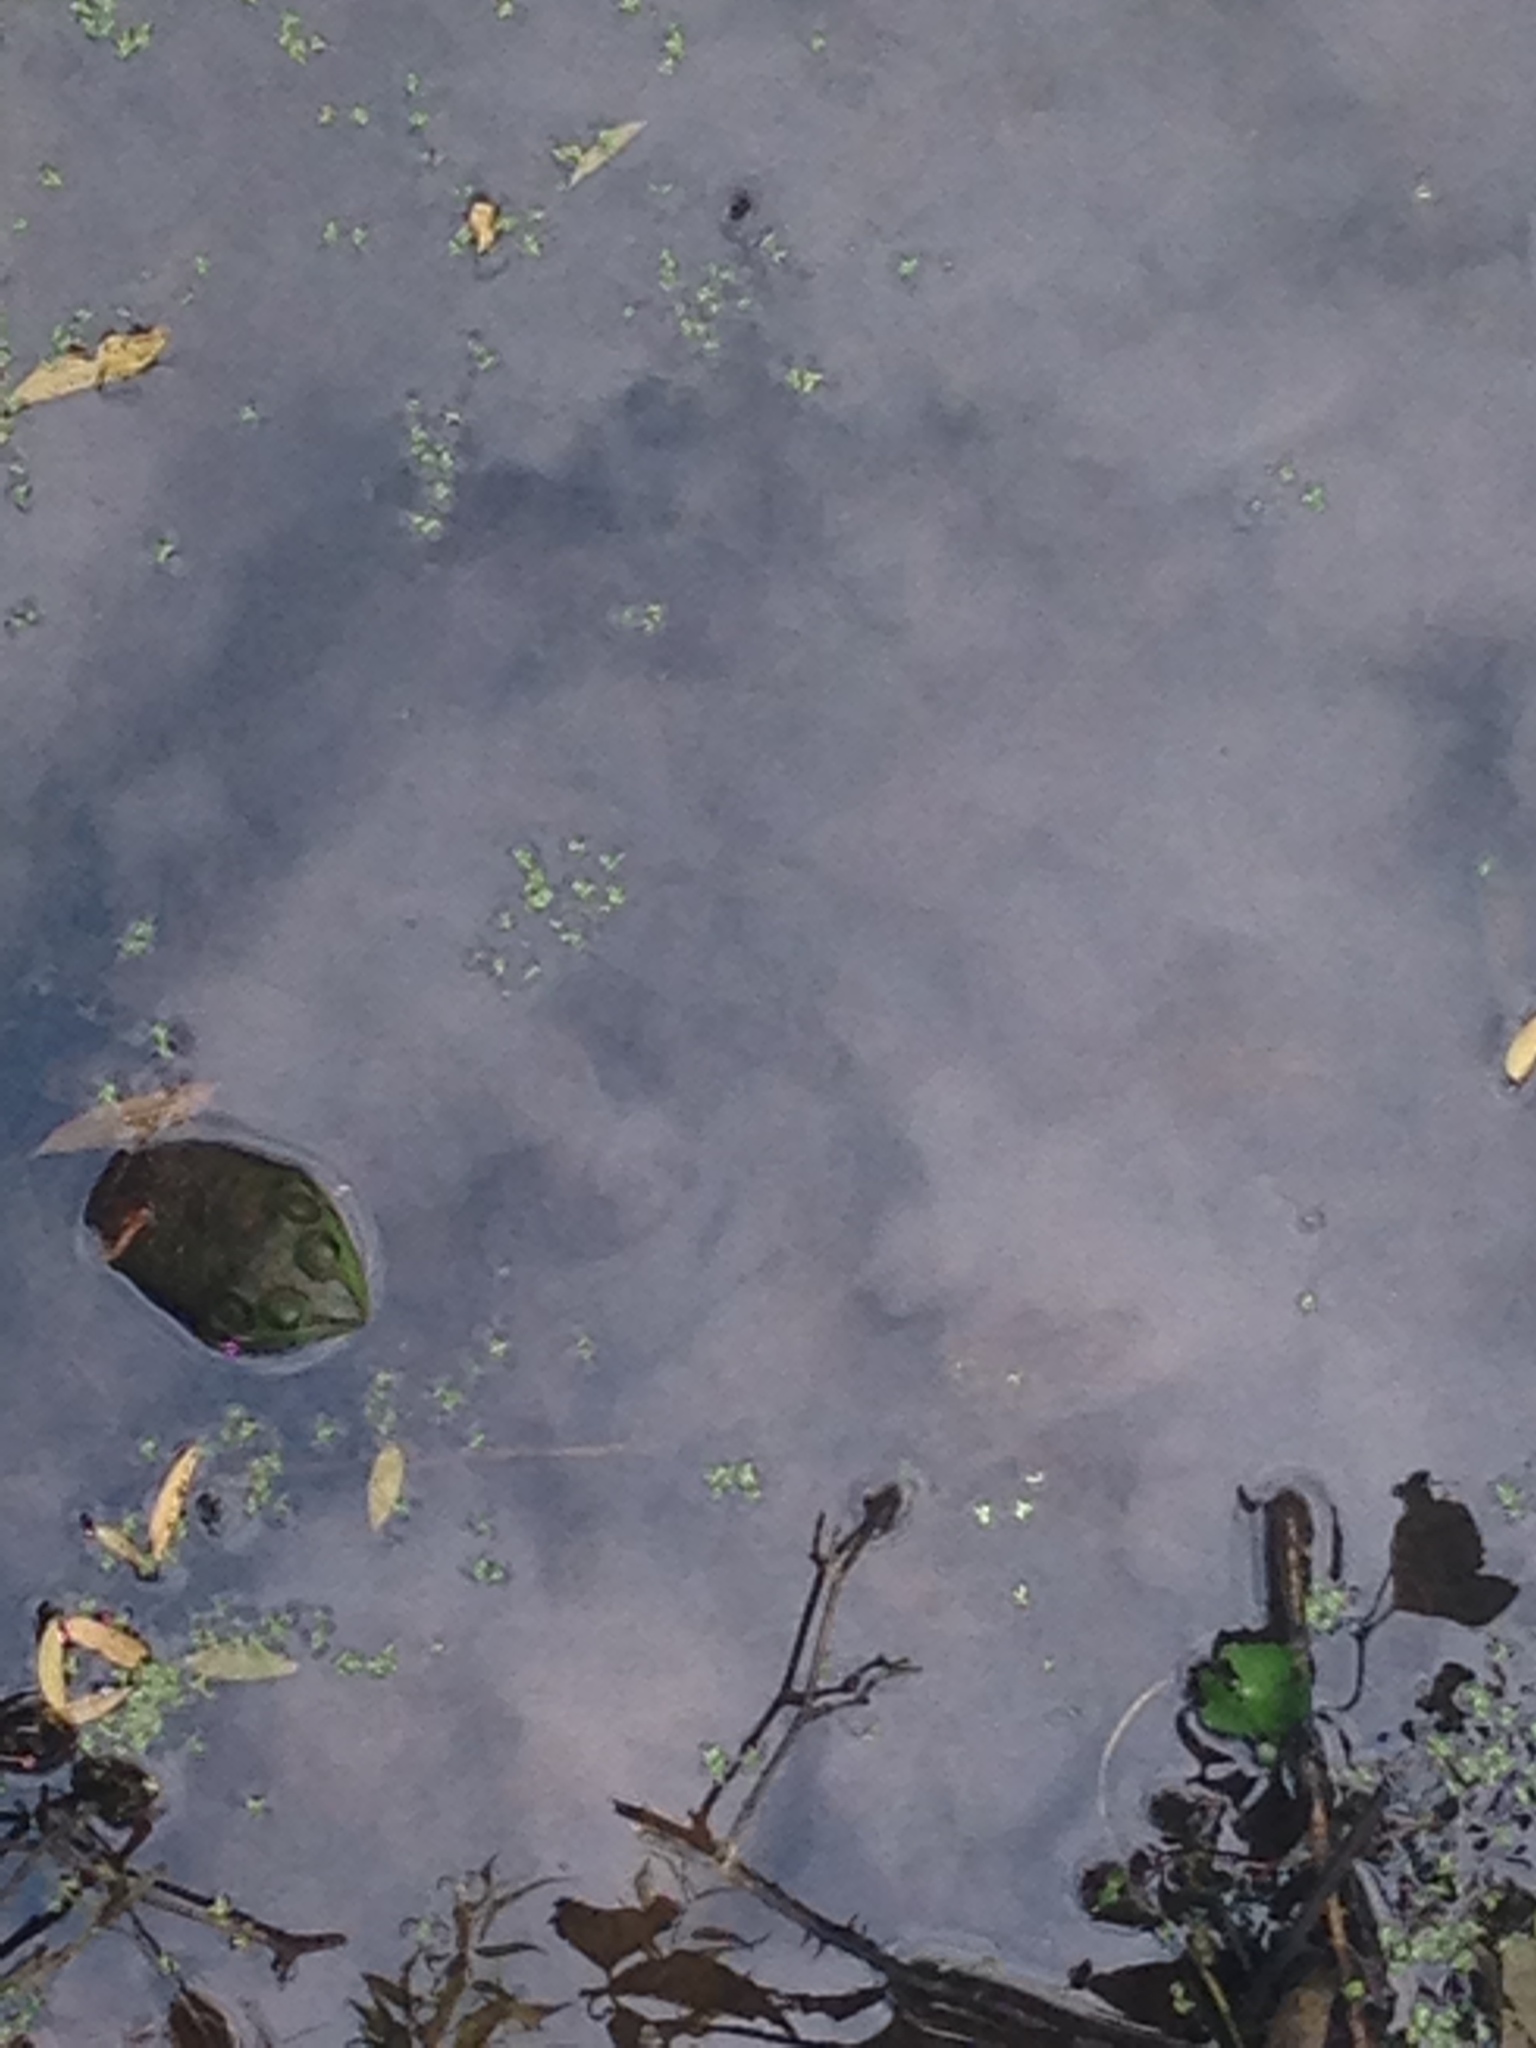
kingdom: Animalia
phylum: Chordata
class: Amphibia
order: Anura
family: Ranidae
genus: Lithobates
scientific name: Lithobates catesbeianus
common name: American bullfrog
